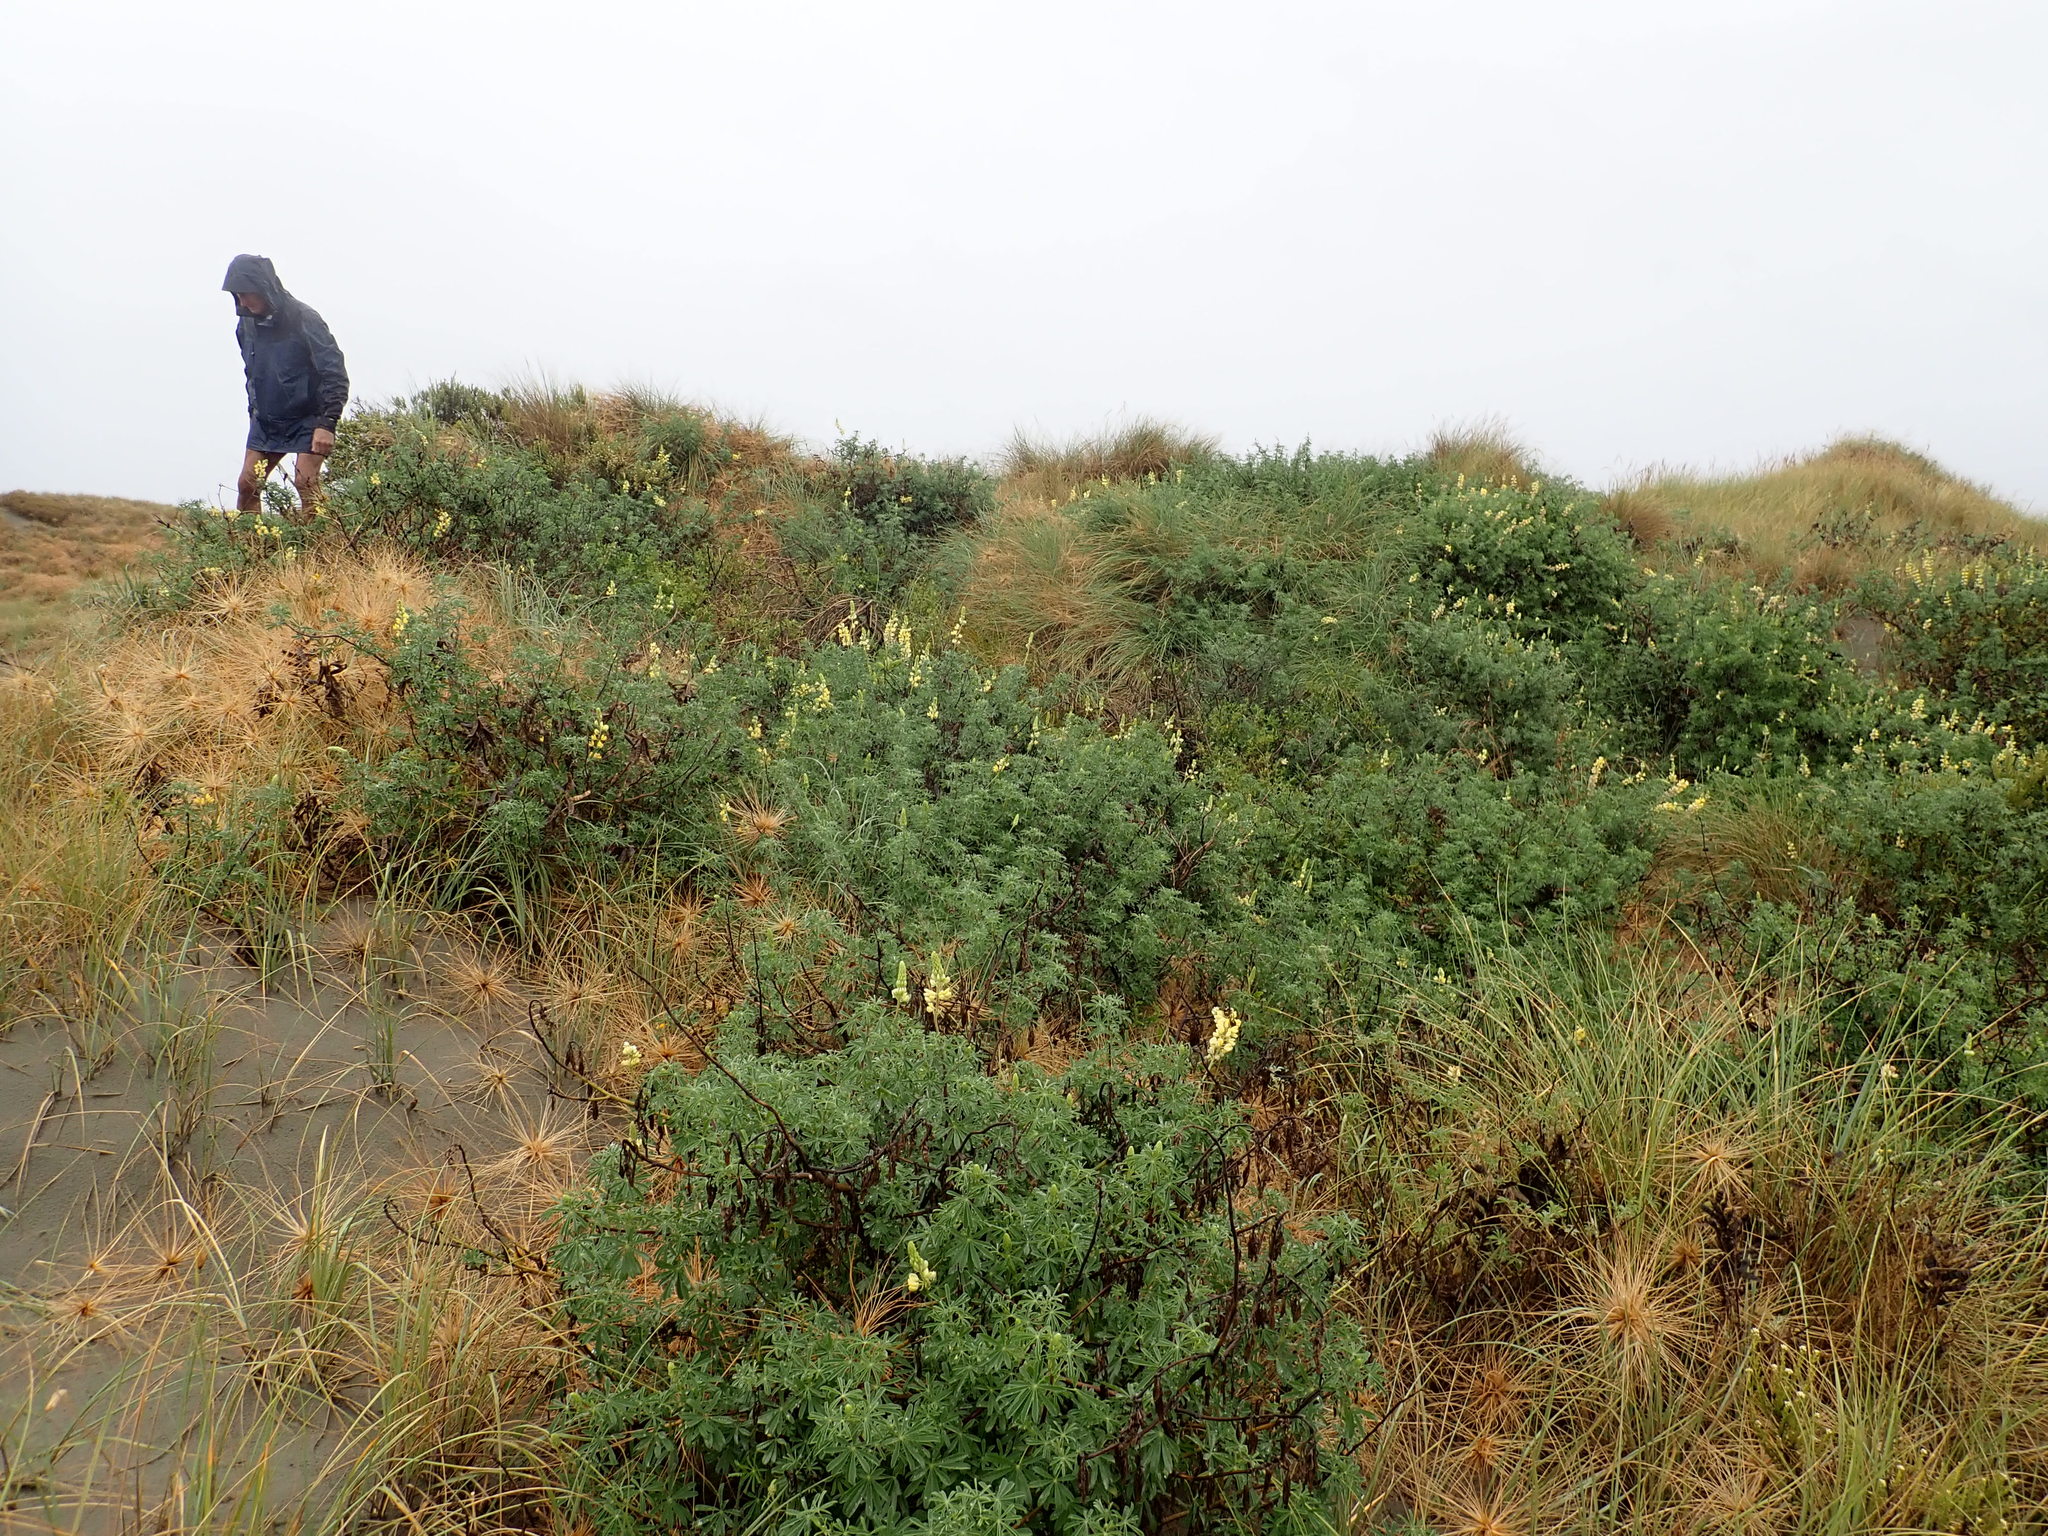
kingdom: Plantae
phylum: Tracheophyta
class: Magnoliopsida
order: Fabales
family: Fabaceae
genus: Lupinus
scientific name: Lupinus arboreus
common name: Yellow bush lupine
